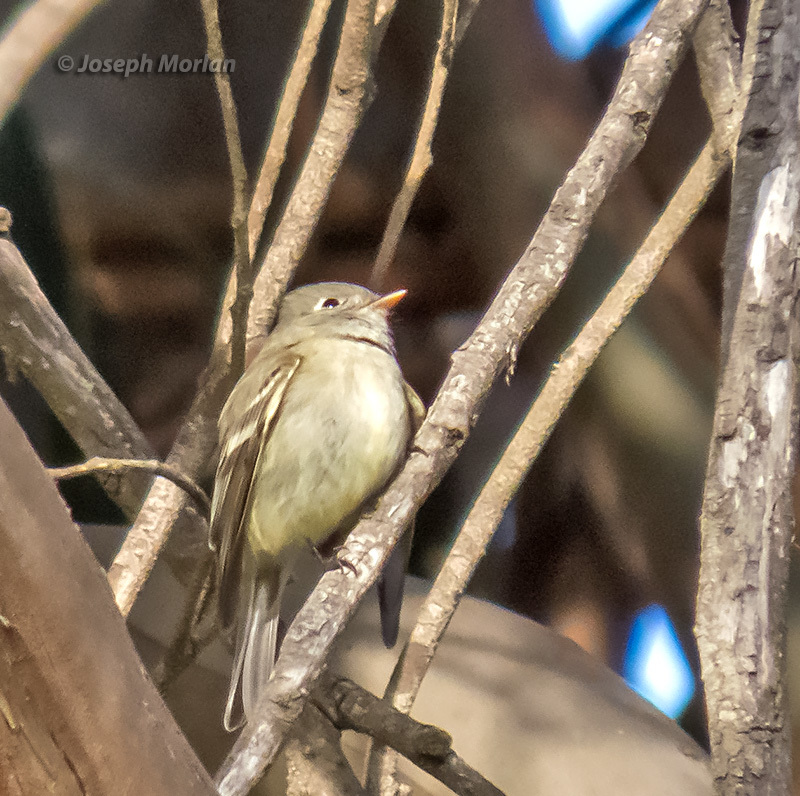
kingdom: Animalia
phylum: Chordata
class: Aves
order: Passeriformes
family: Tyrannidae
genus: Empidonax
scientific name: Empidonax hammondii
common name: Hammond's flycatcher
